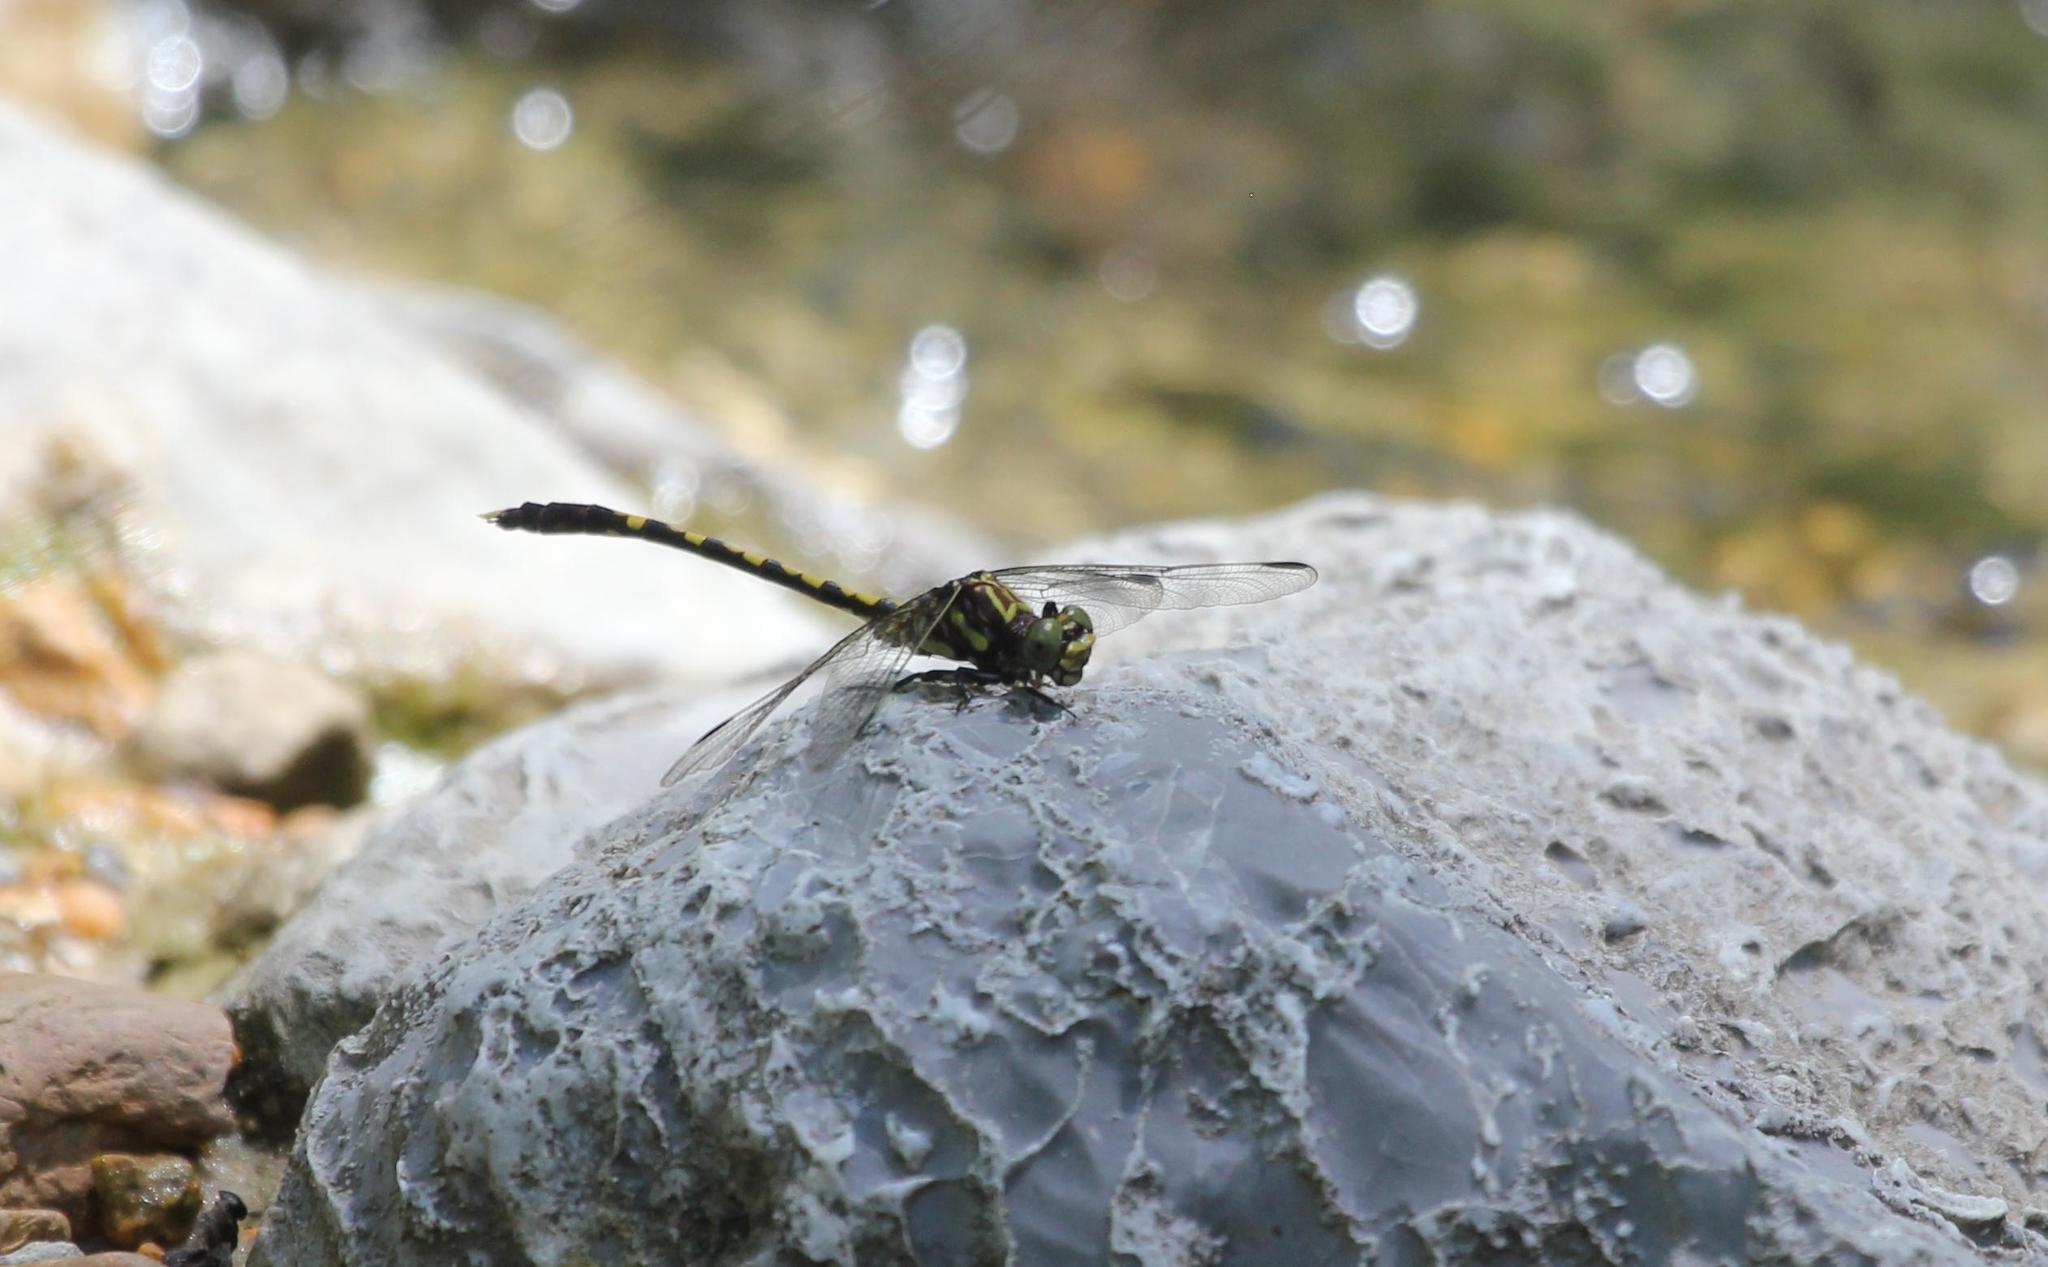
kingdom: Animalia
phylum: Arthropoda
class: Insecta
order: Odonata
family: Gomphidae
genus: Progomphus
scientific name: Progomphus obscurus
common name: Common sanddragon
